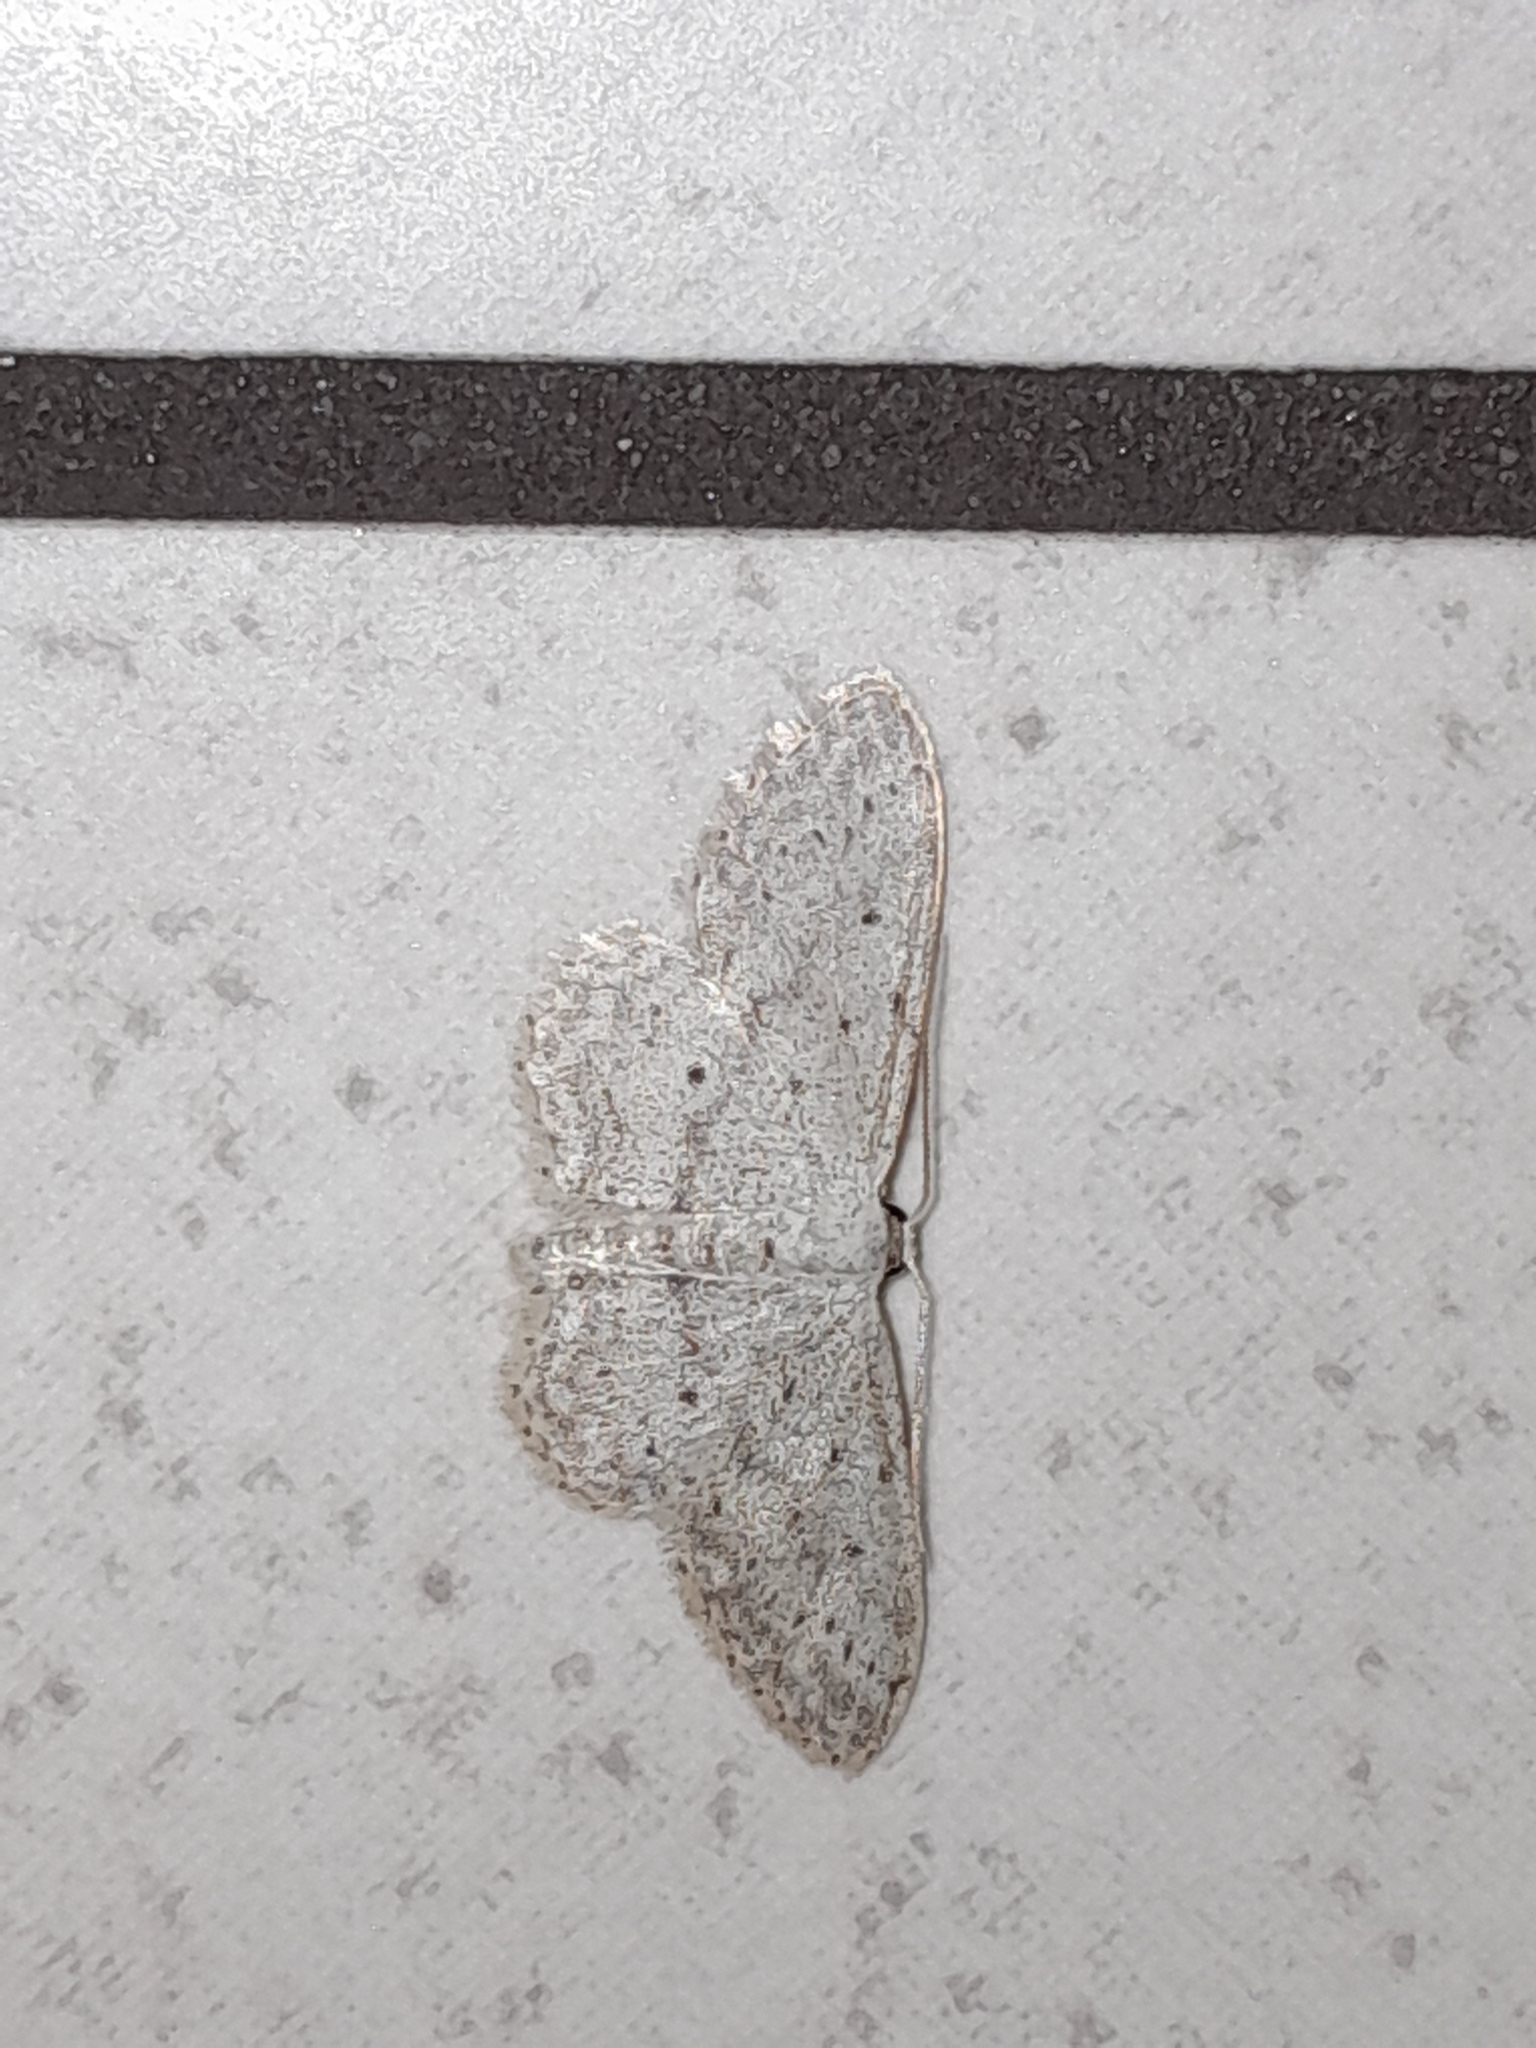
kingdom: Animalia
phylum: Arthropoda
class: Insecta
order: Lepidoptera
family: Geometridae
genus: Idaea
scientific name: Idaea seriata
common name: Small dusty wave
